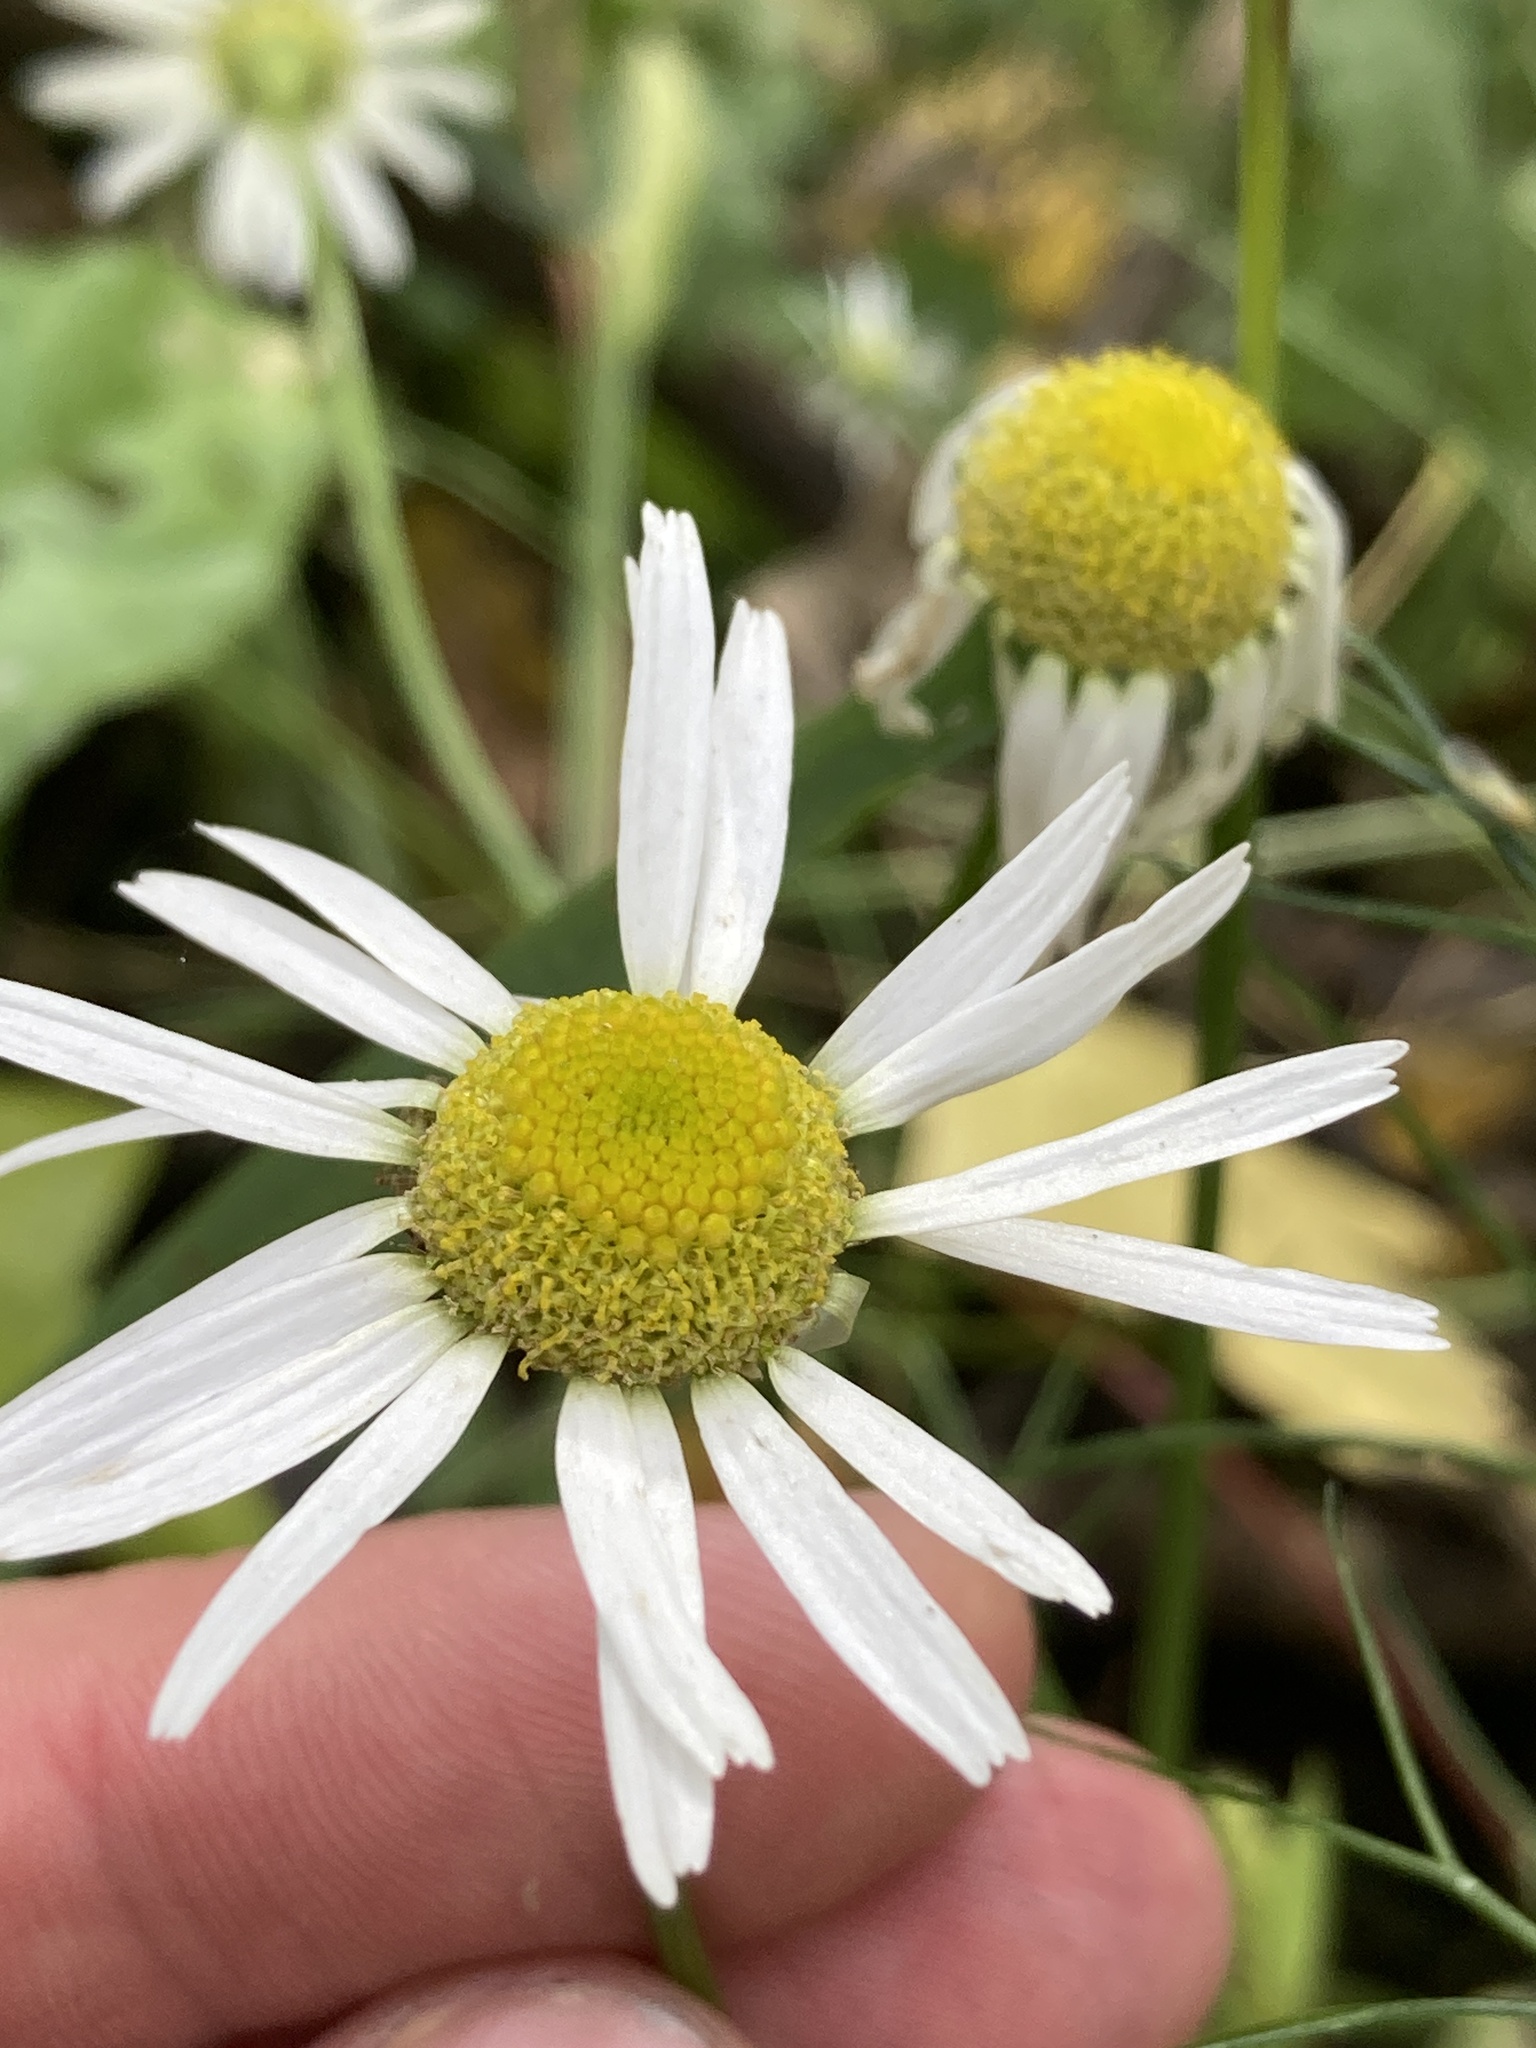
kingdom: Plantae
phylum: Tracheophyta
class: Magnoliopsida
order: Asterales
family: Asteraceae
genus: Tripleurospermum
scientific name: Tripleurospermum inodorum
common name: Scentless mayweed
